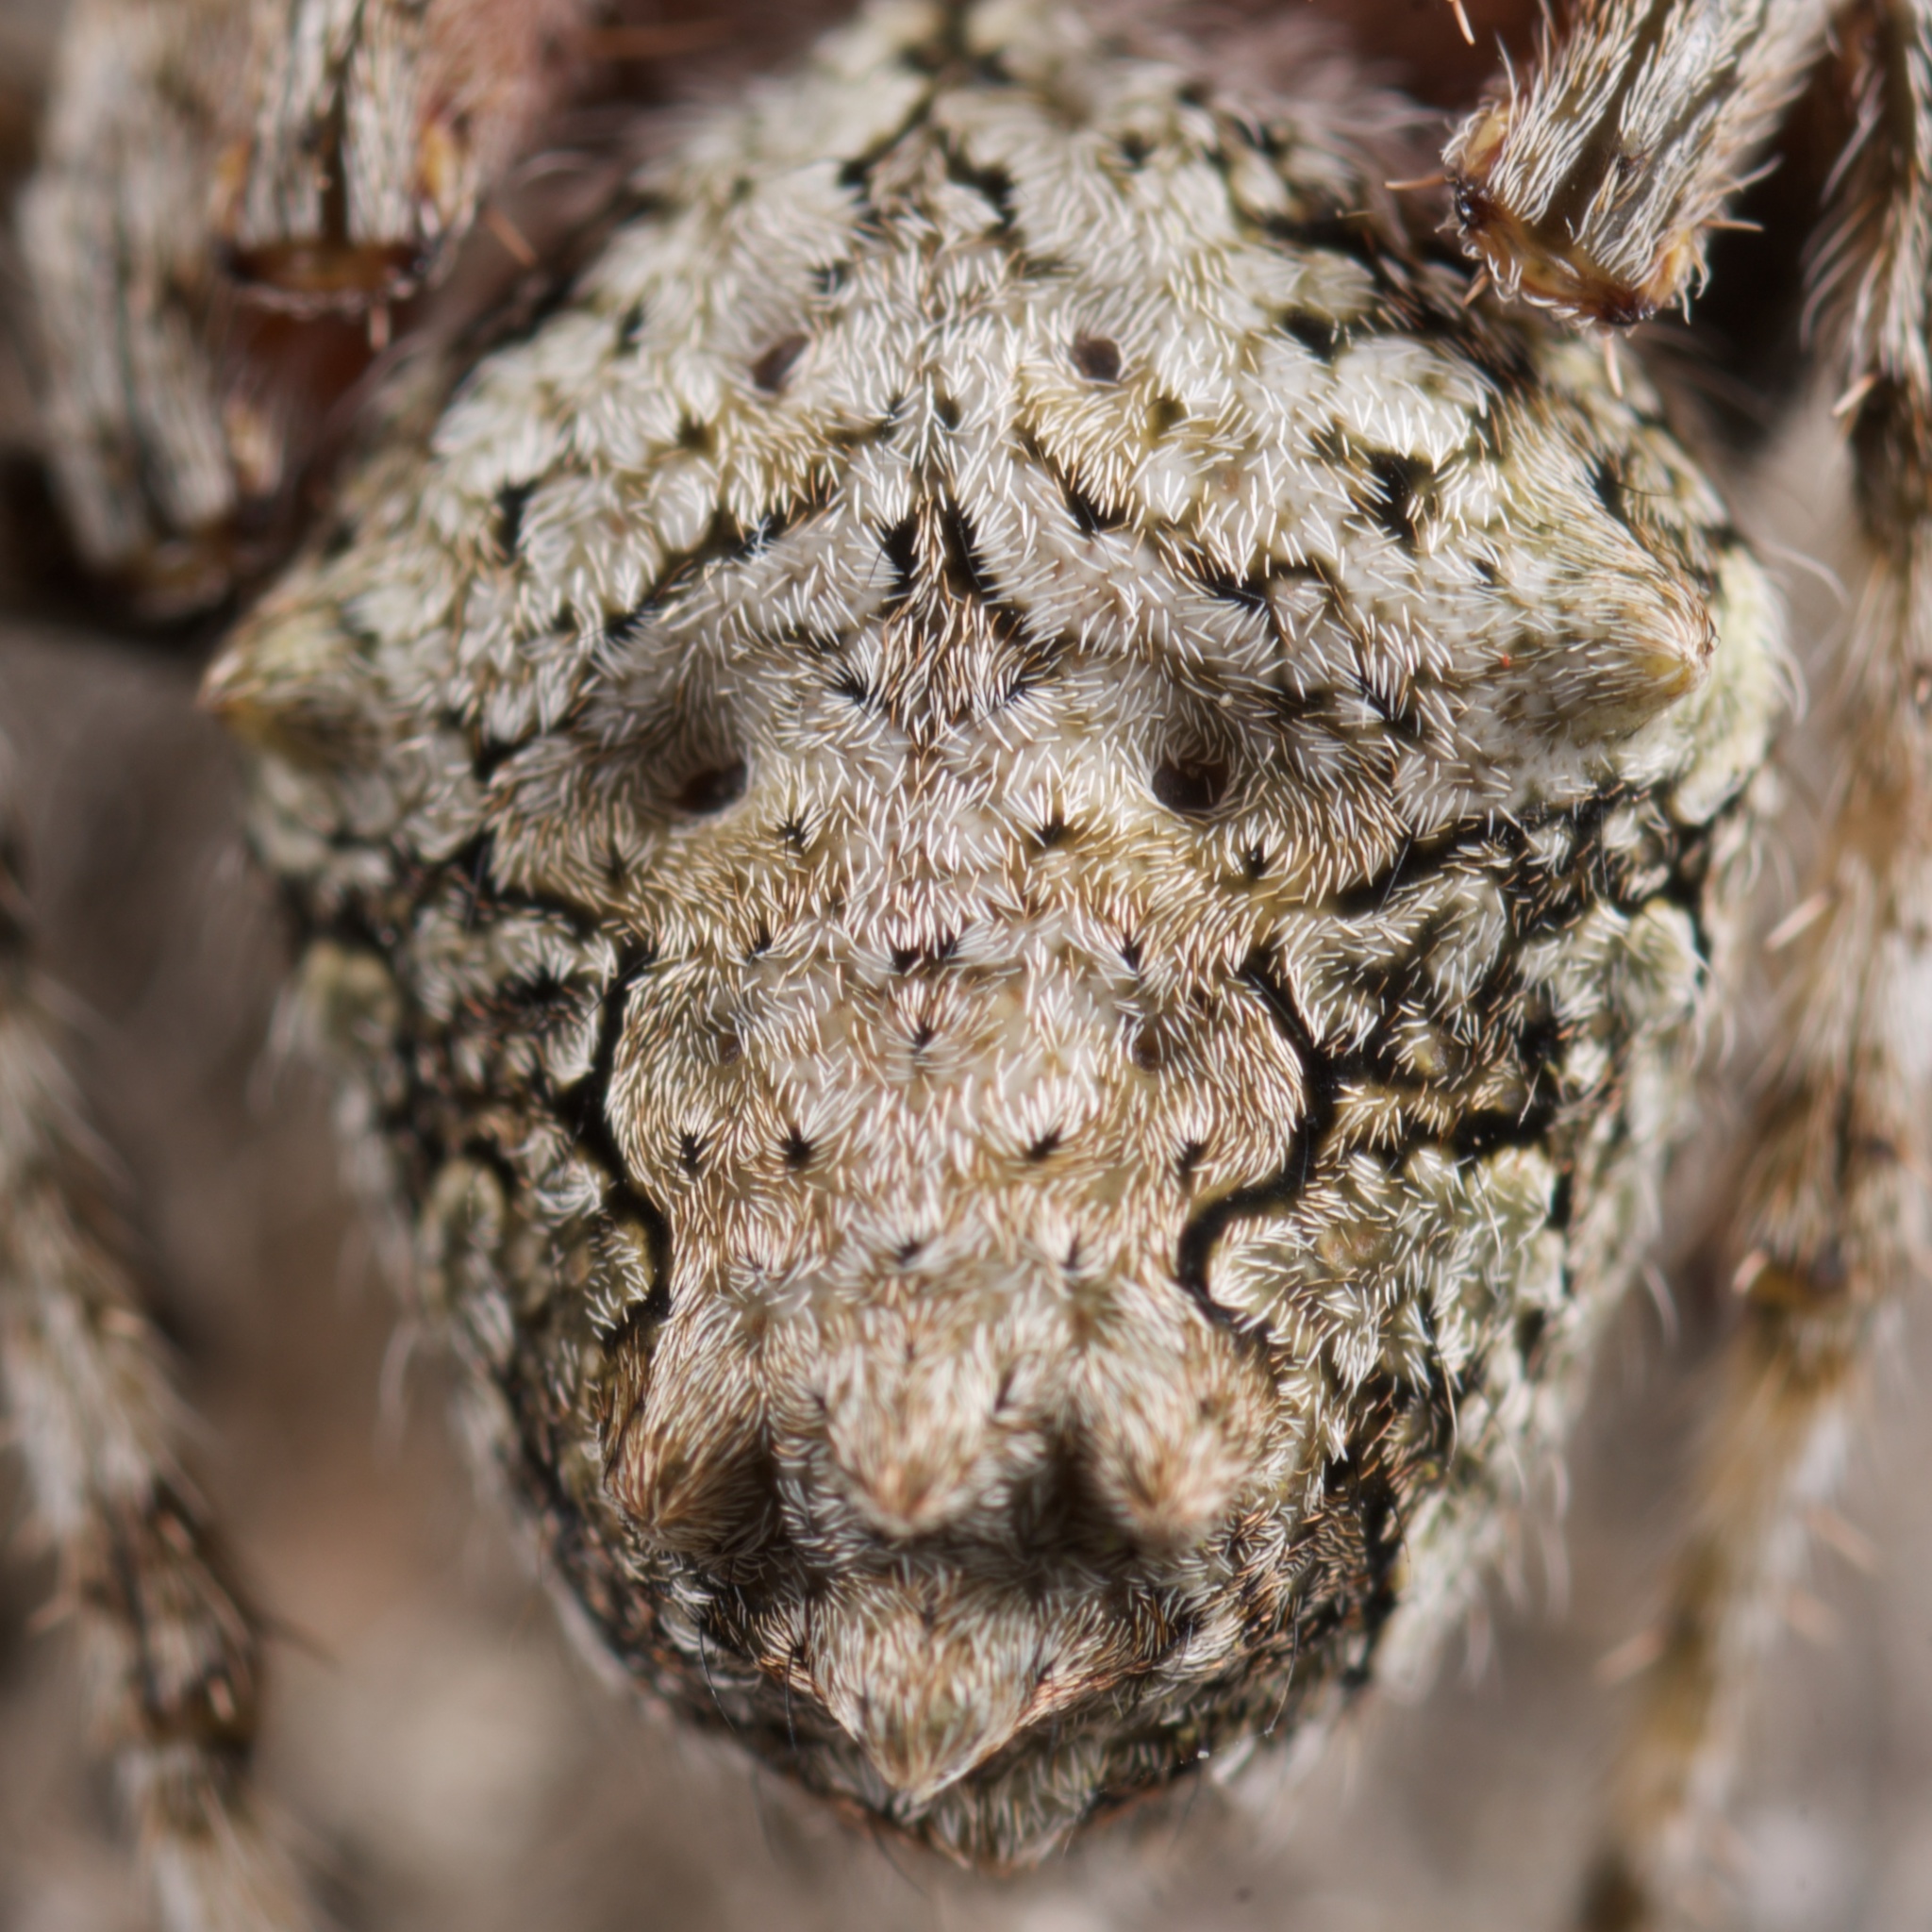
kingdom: Animalia
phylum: Arthropoda
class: Arachnida
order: Araneae
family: Araneidae
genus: Eriophora
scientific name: Eriophora pustulosa
